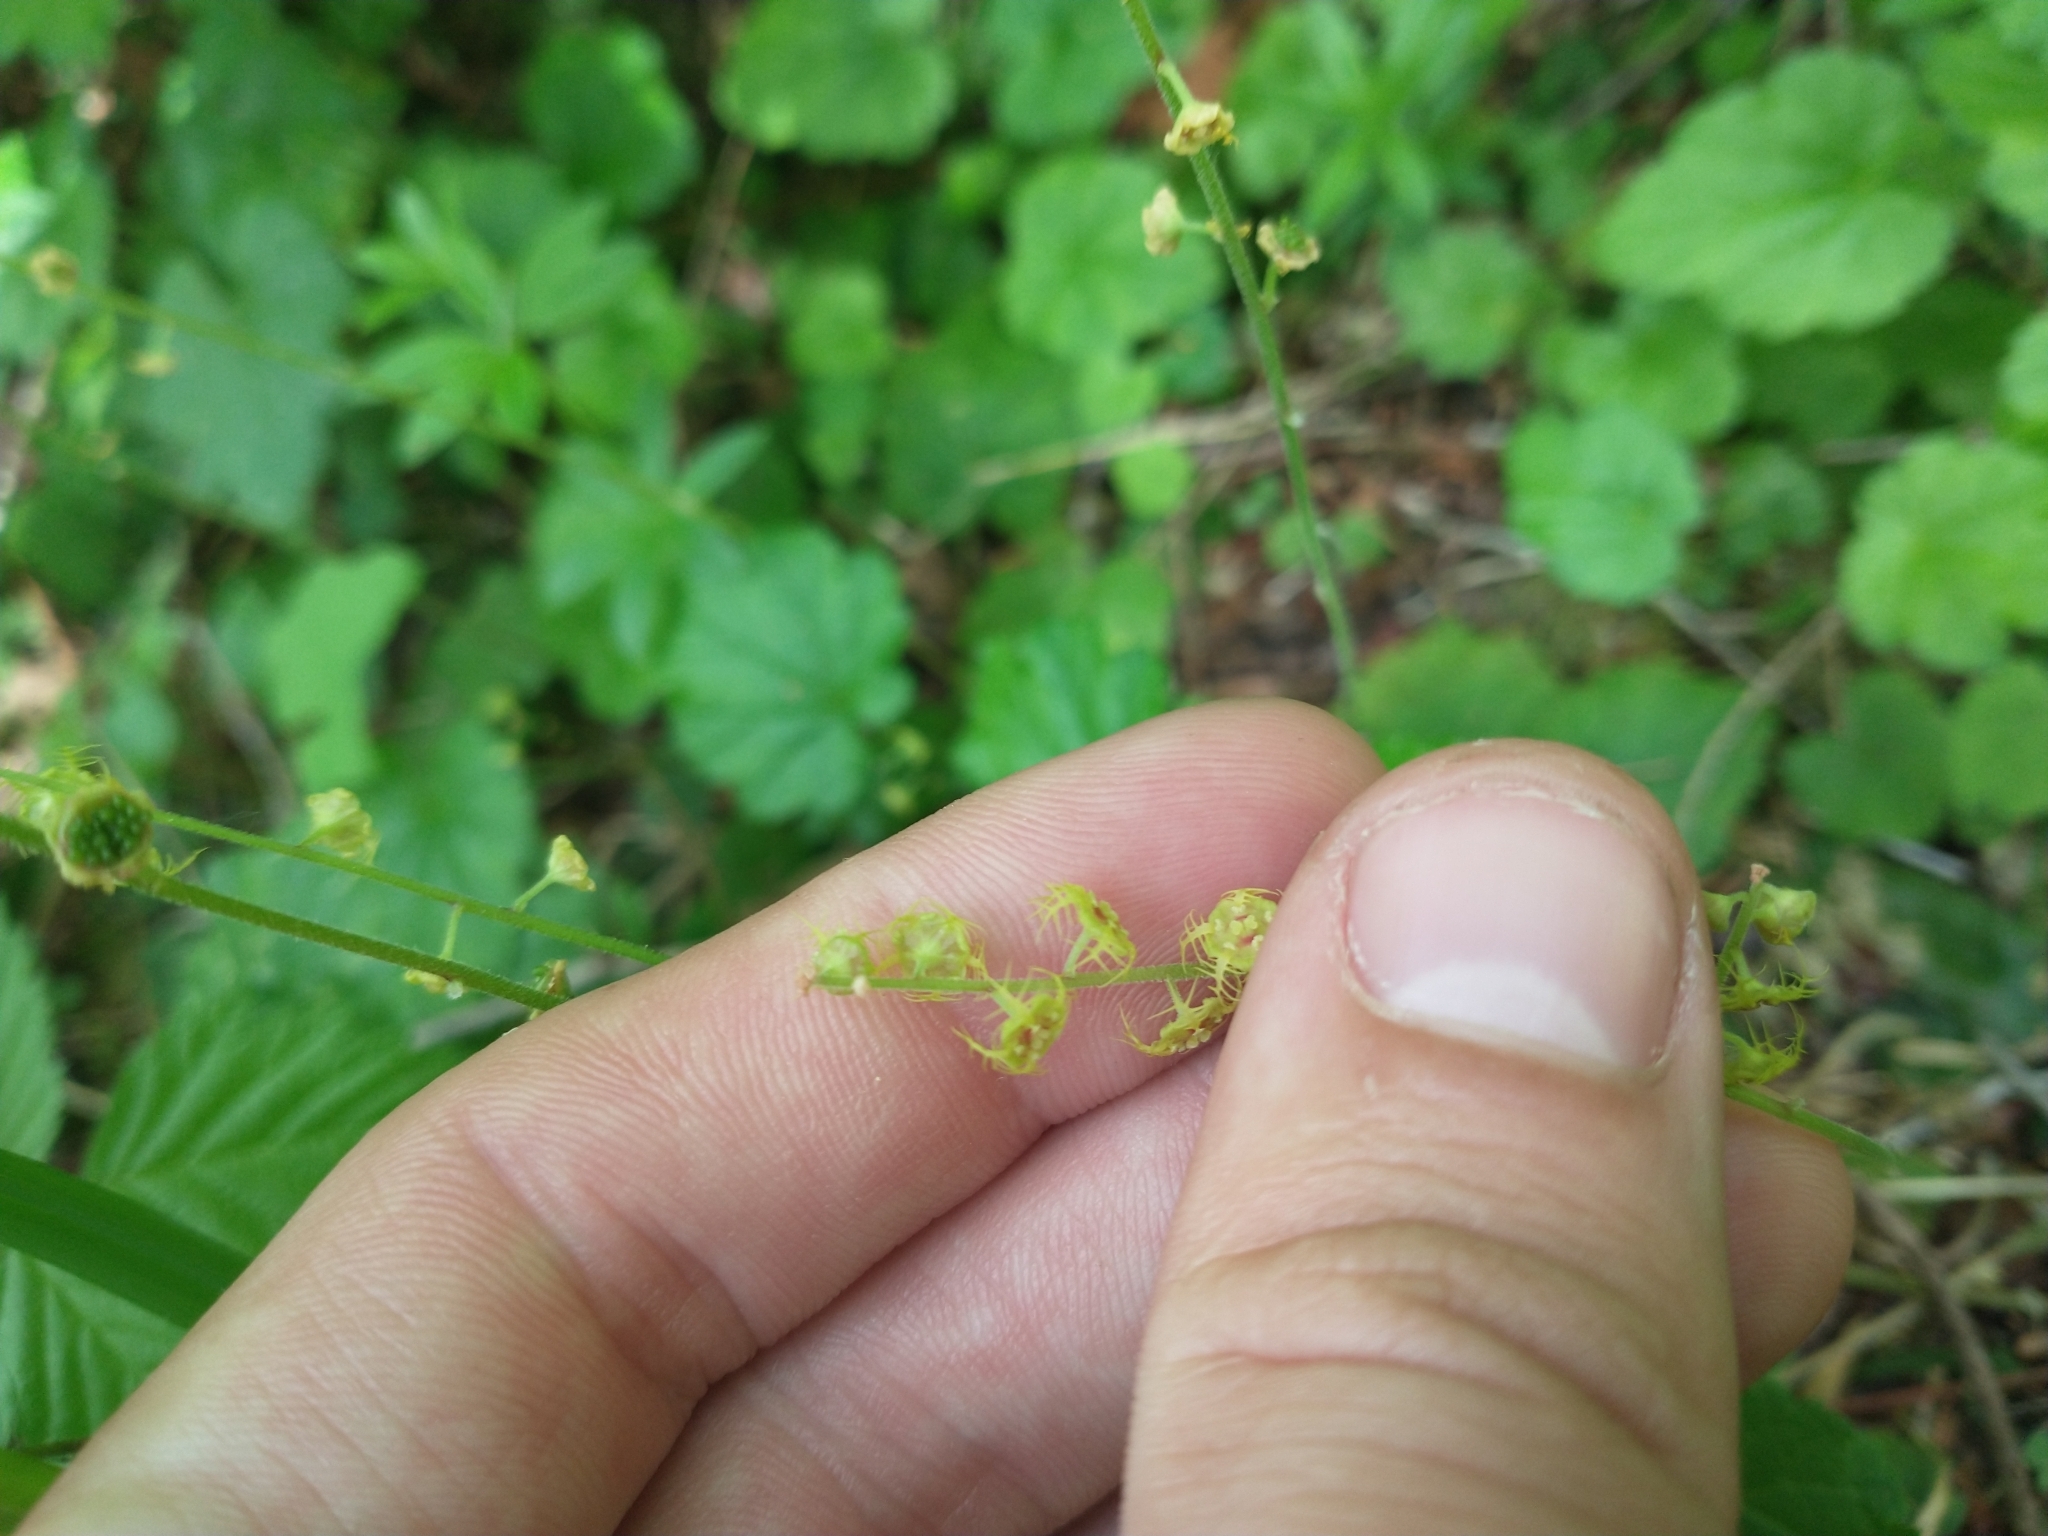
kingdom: Plantae
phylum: Tracheophyta
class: Magnoliopsida
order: Saxifragales
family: Saxifragaceae
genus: Pectiantia
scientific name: Pectiantia pentandra
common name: Alpine bishop's-cap
